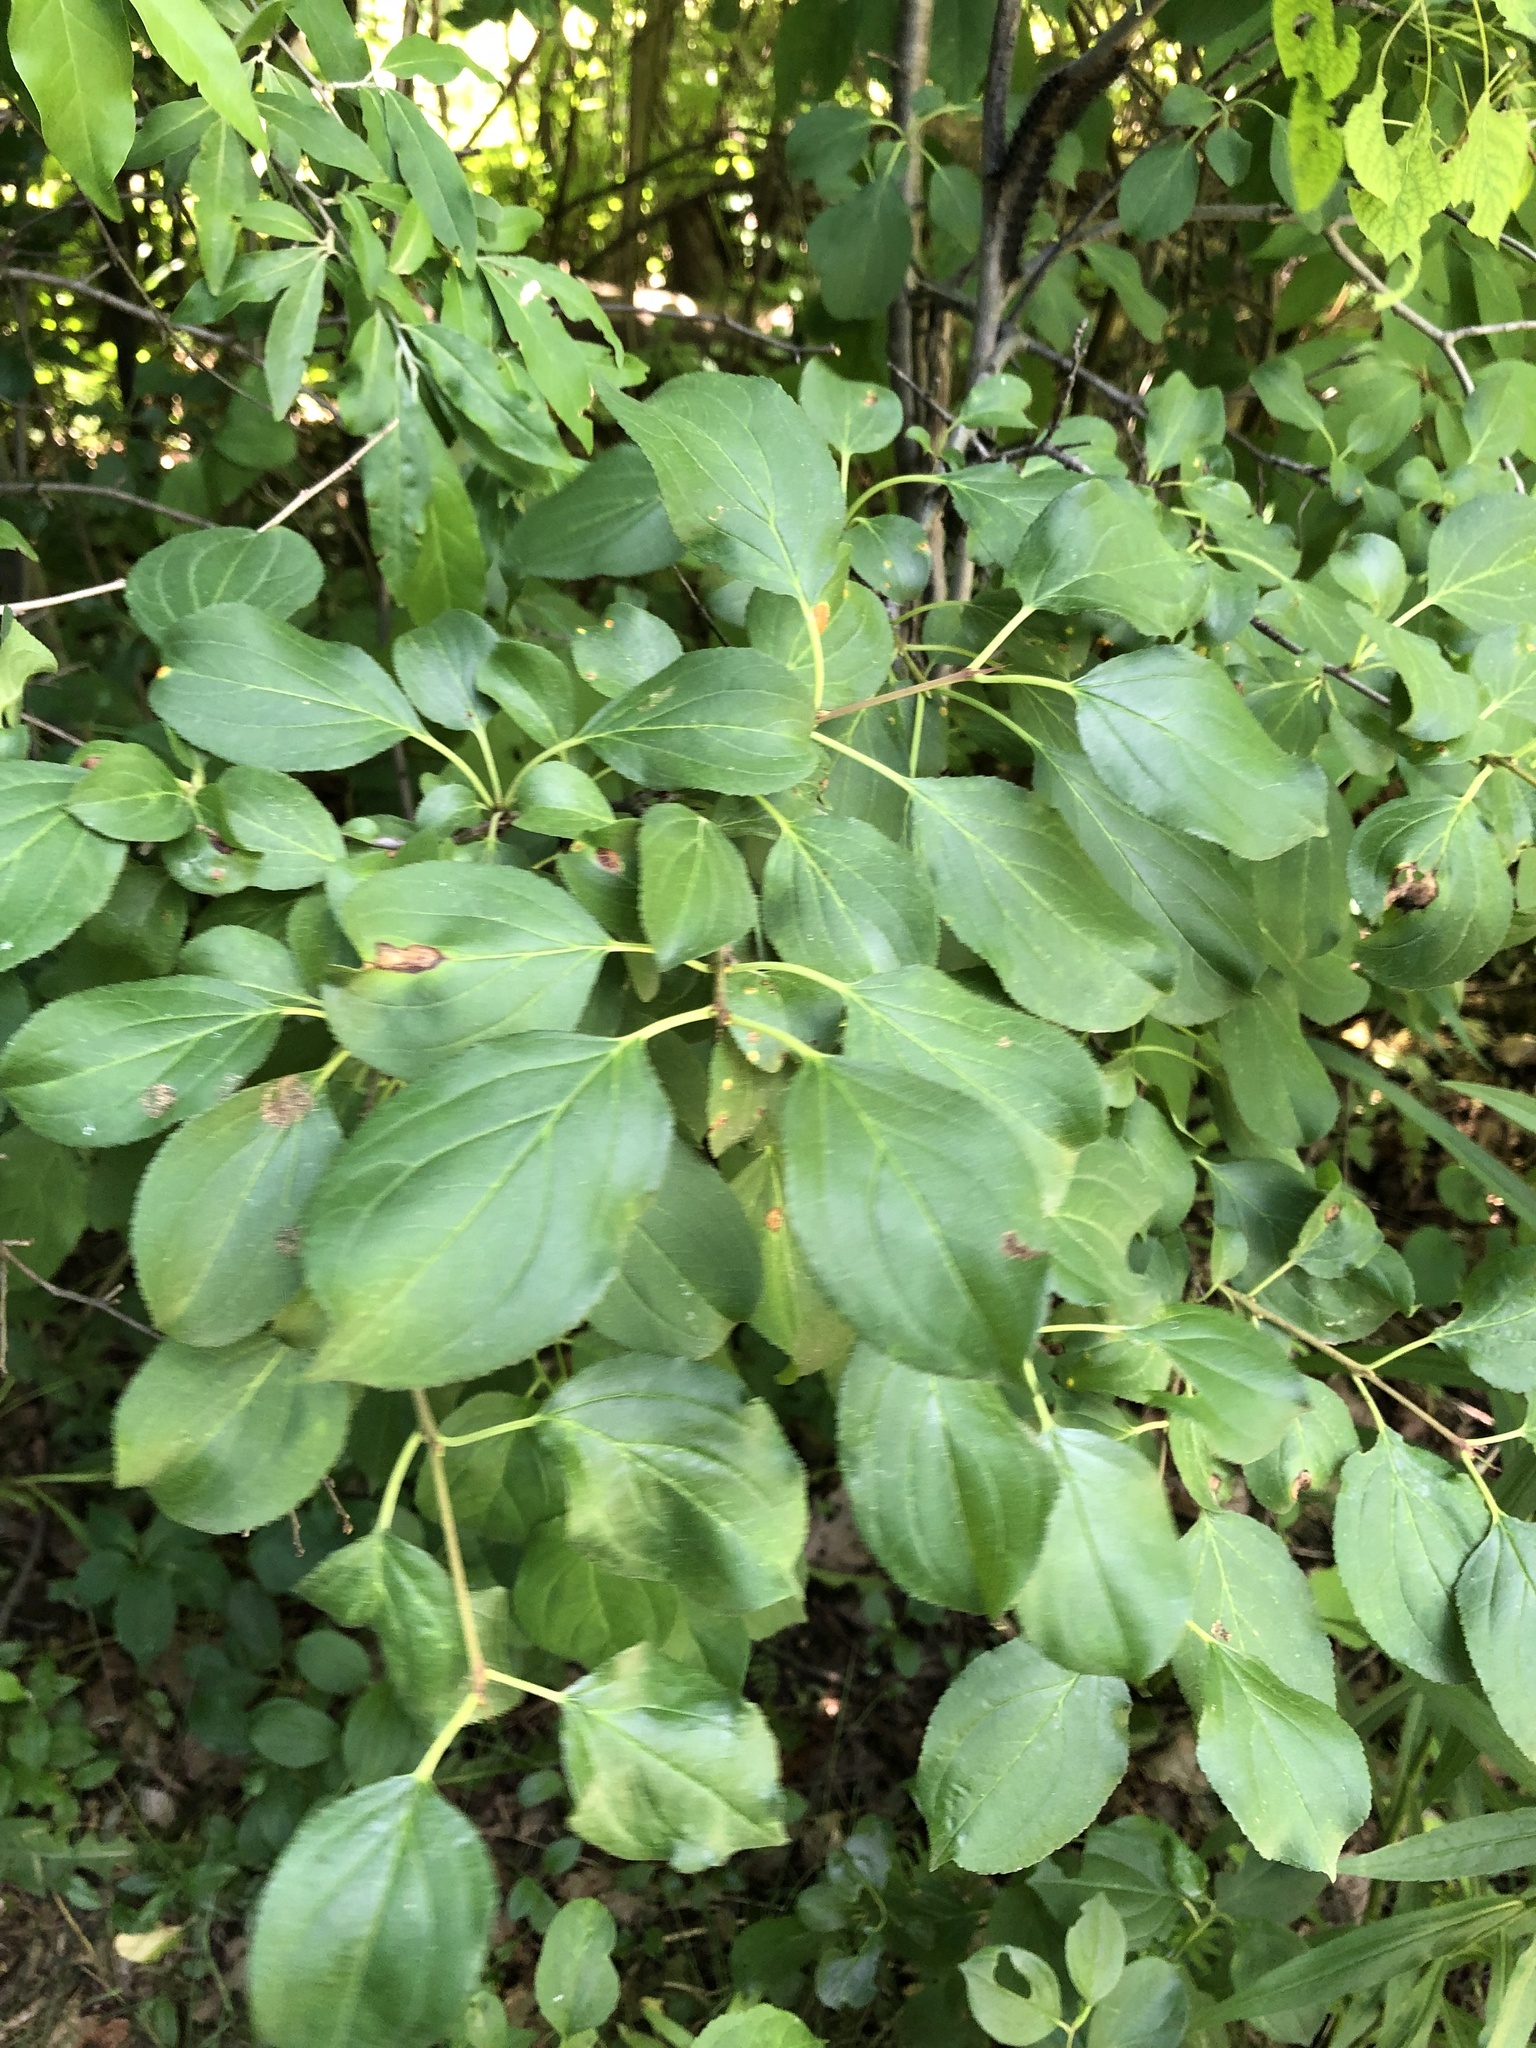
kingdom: Plantae
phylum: Tracheophyta
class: Magnoliopsida
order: Rosales
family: Rhamnaceae
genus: Rhamnus
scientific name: Rhamnus cathartica
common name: Common buckthorn
